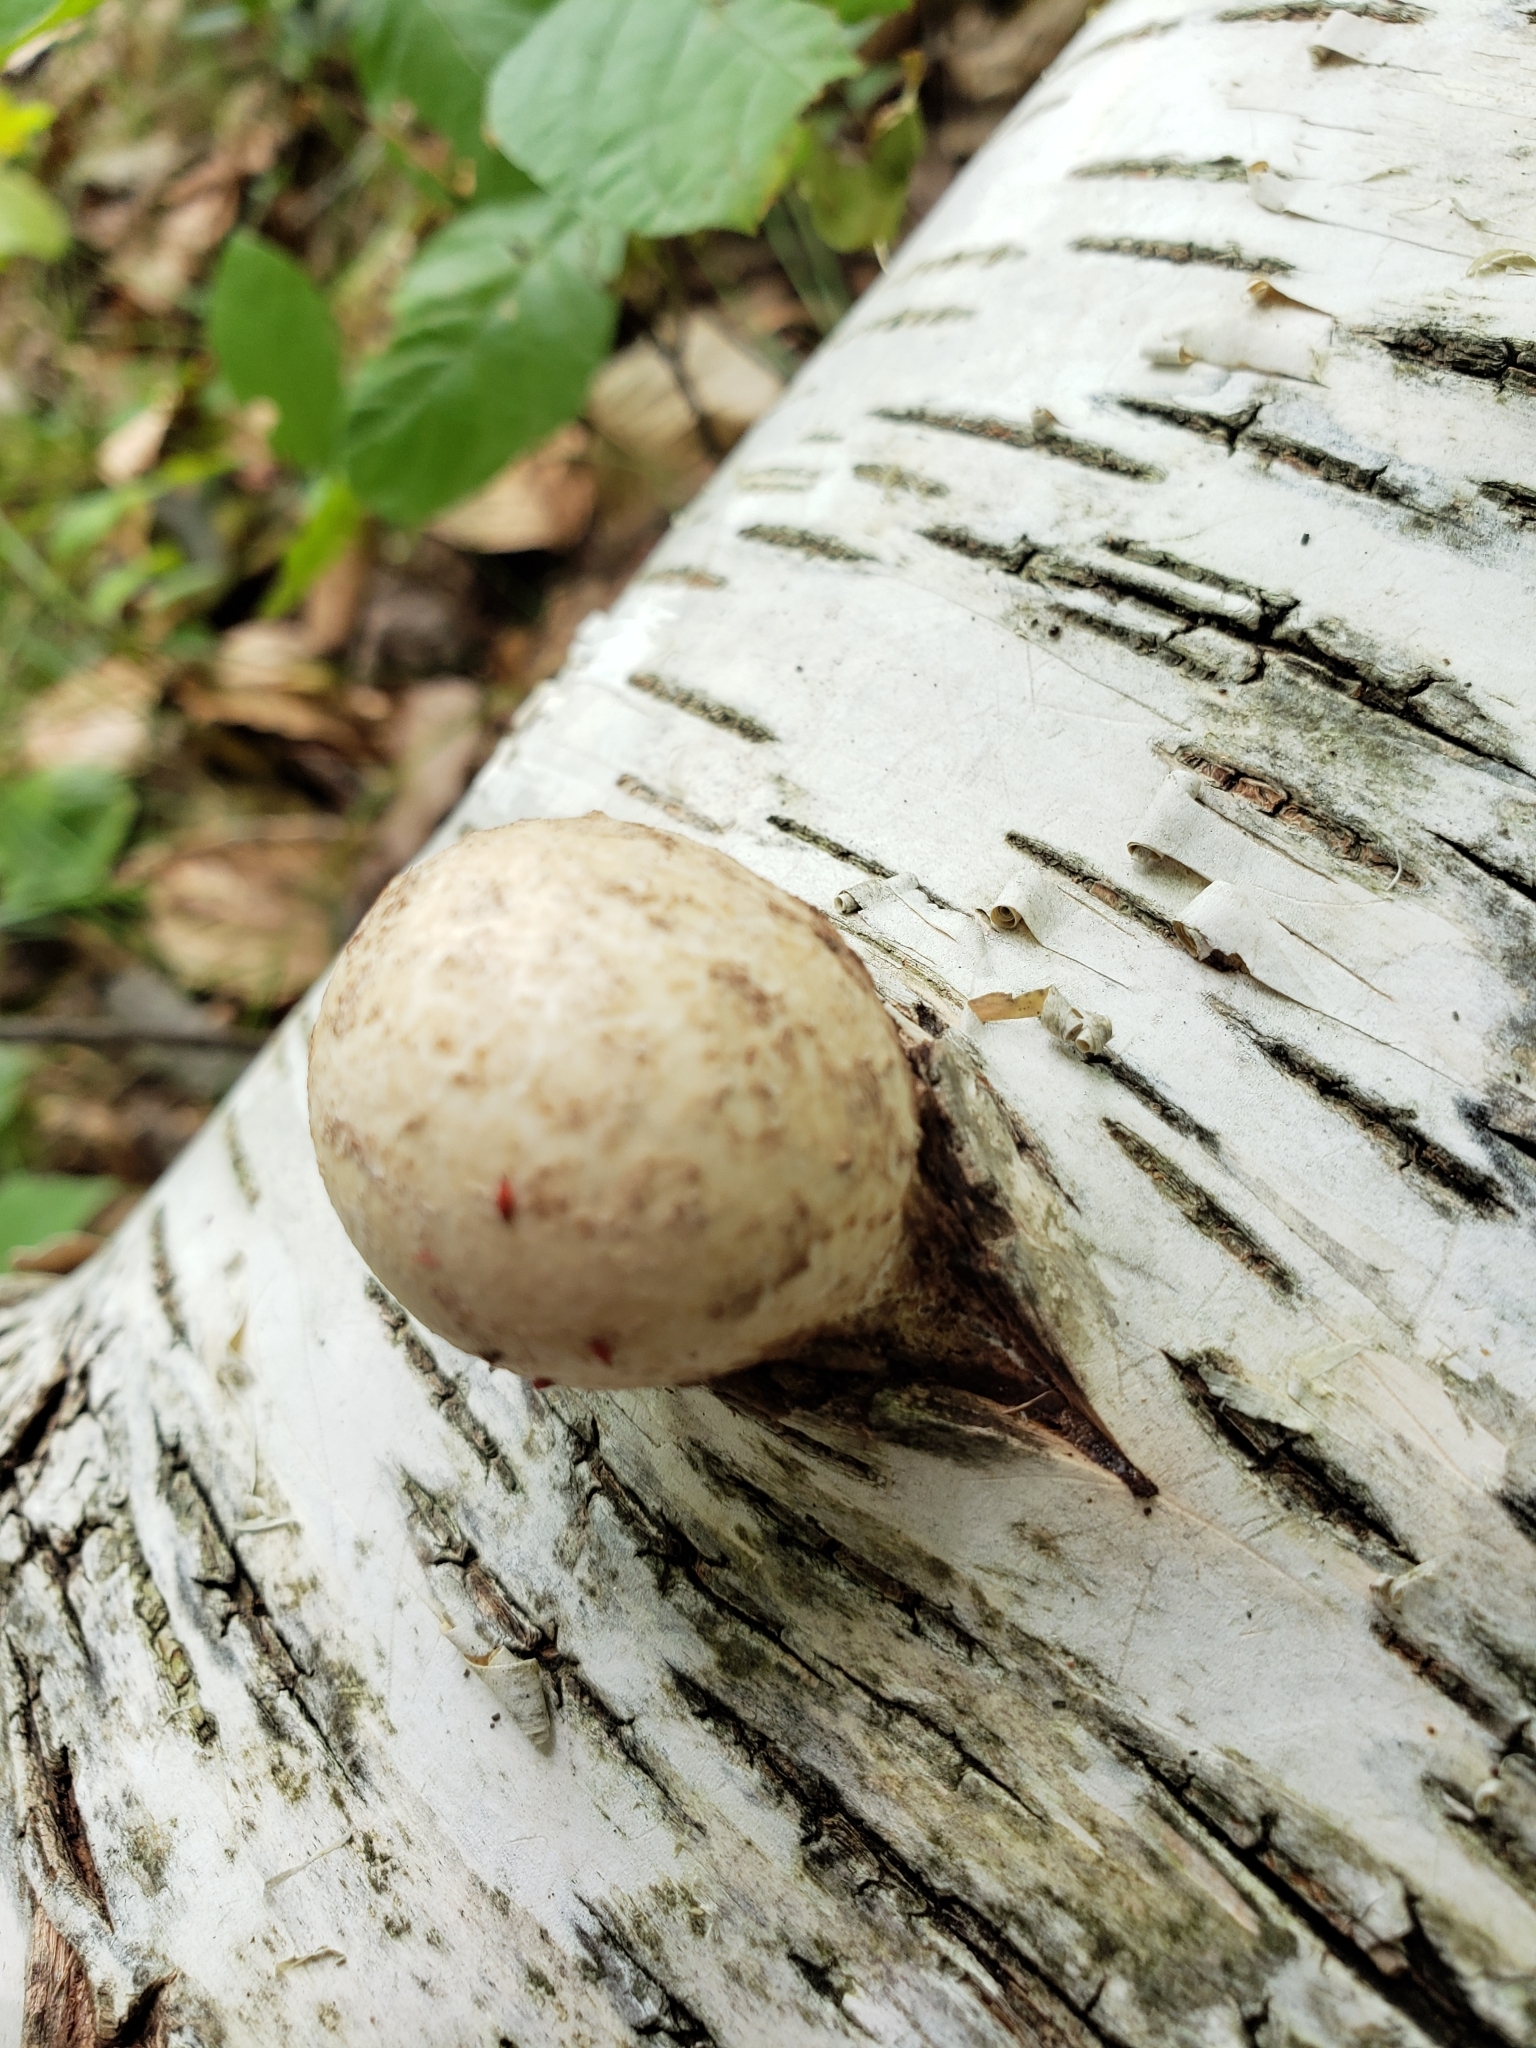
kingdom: Fungi
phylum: Basidiomycota
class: Agaricomycetes
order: Polyporales
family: Fomitopsidaceae
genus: Fomitopsis
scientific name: Fomitopsis betulina
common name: Birch polypore
